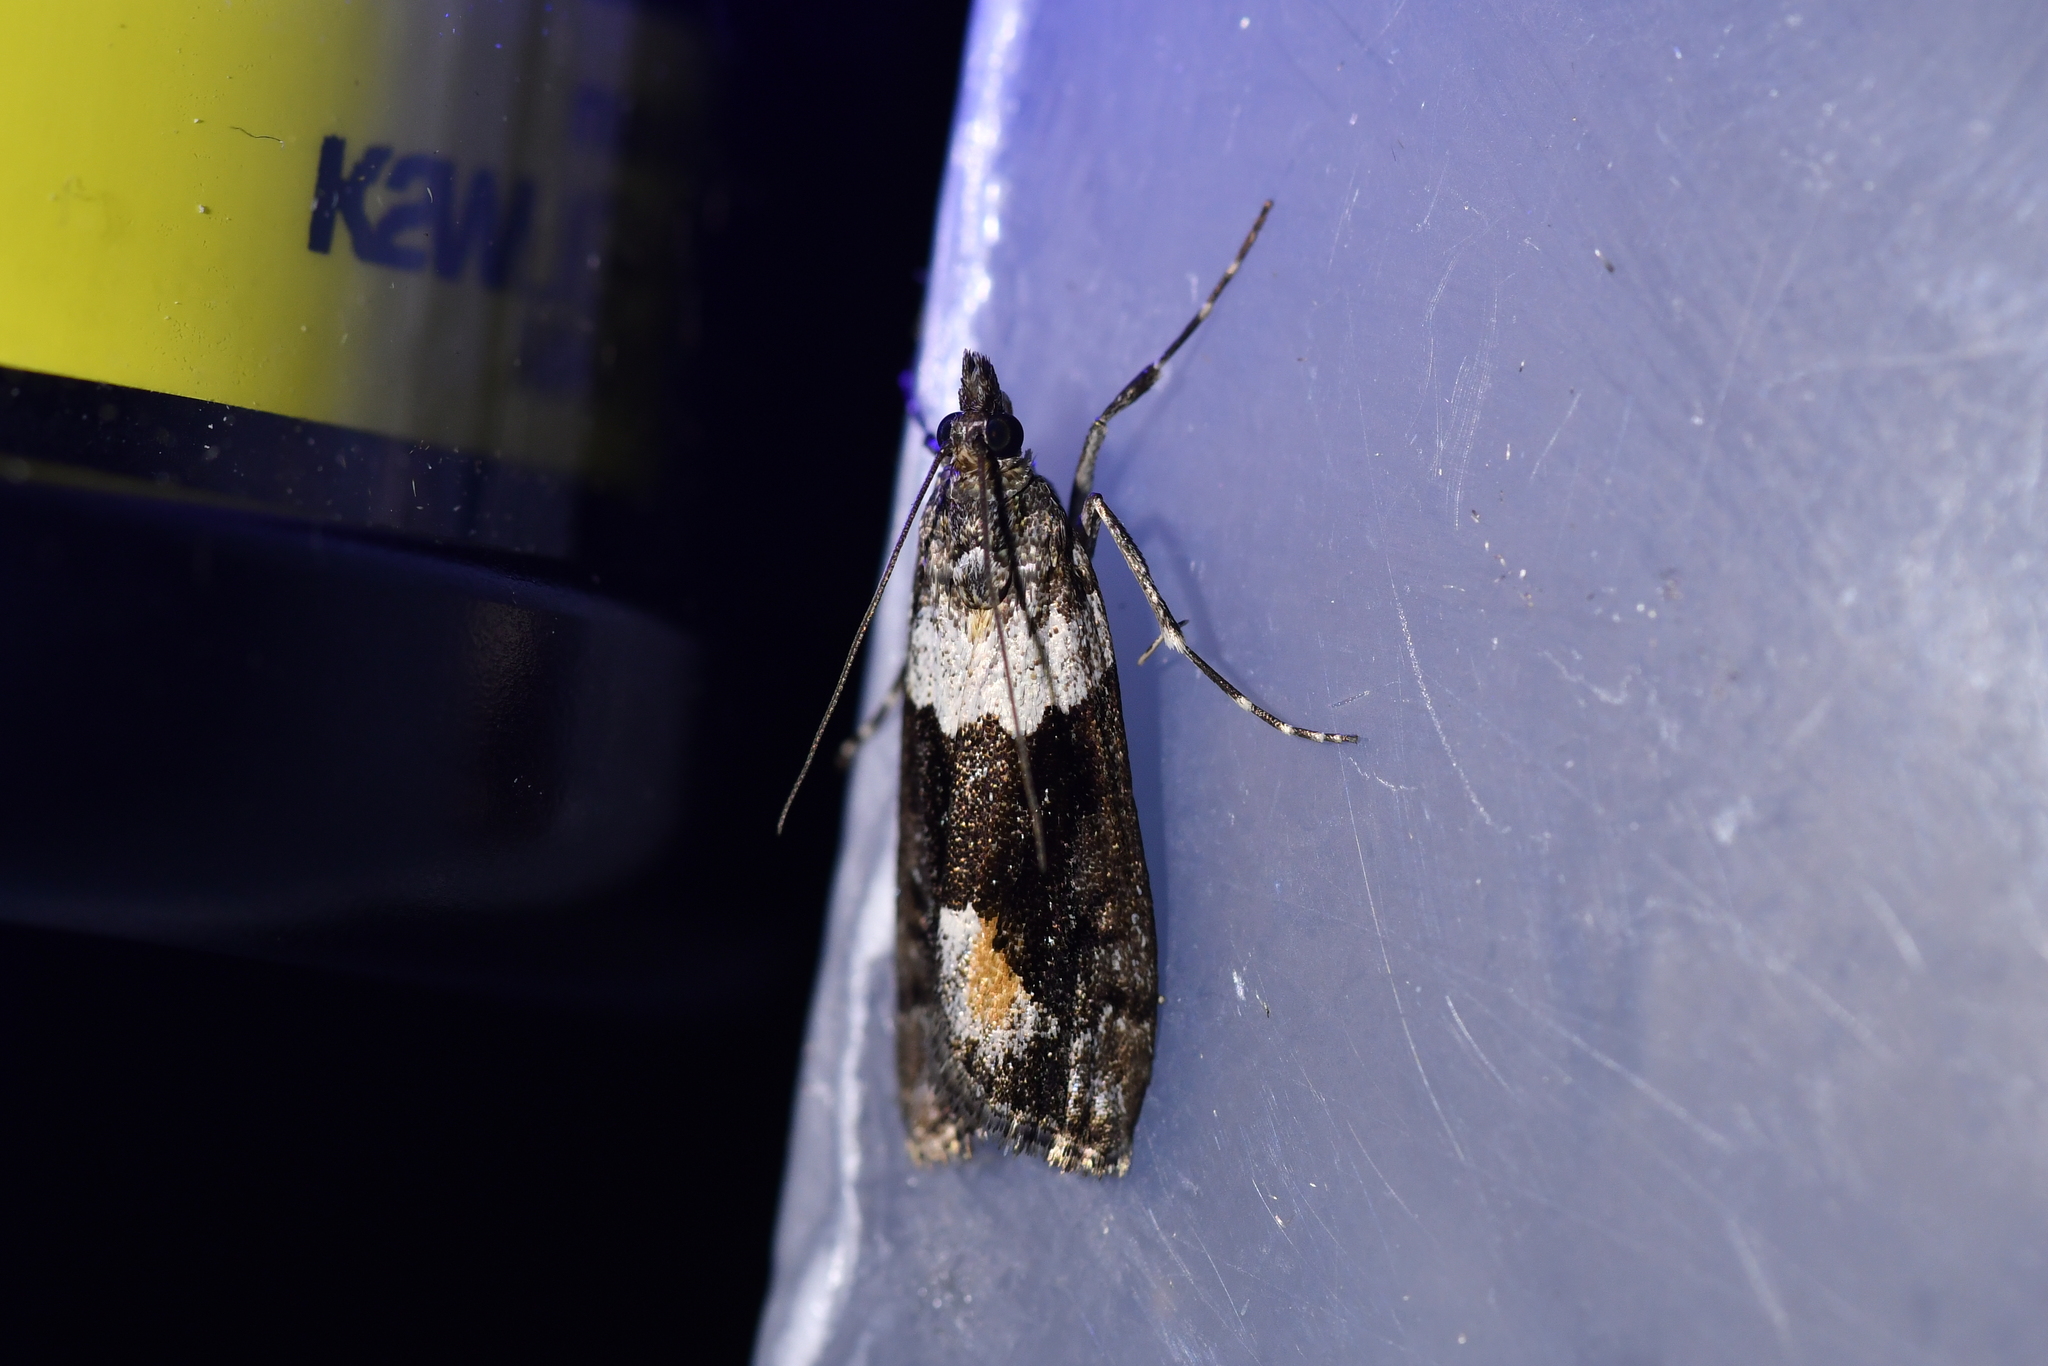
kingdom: Animalia
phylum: Arthropoda
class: Insecta
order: Lepidoptera
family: Crambidae
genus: Eudonia
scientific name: Eudonia submarginalis
